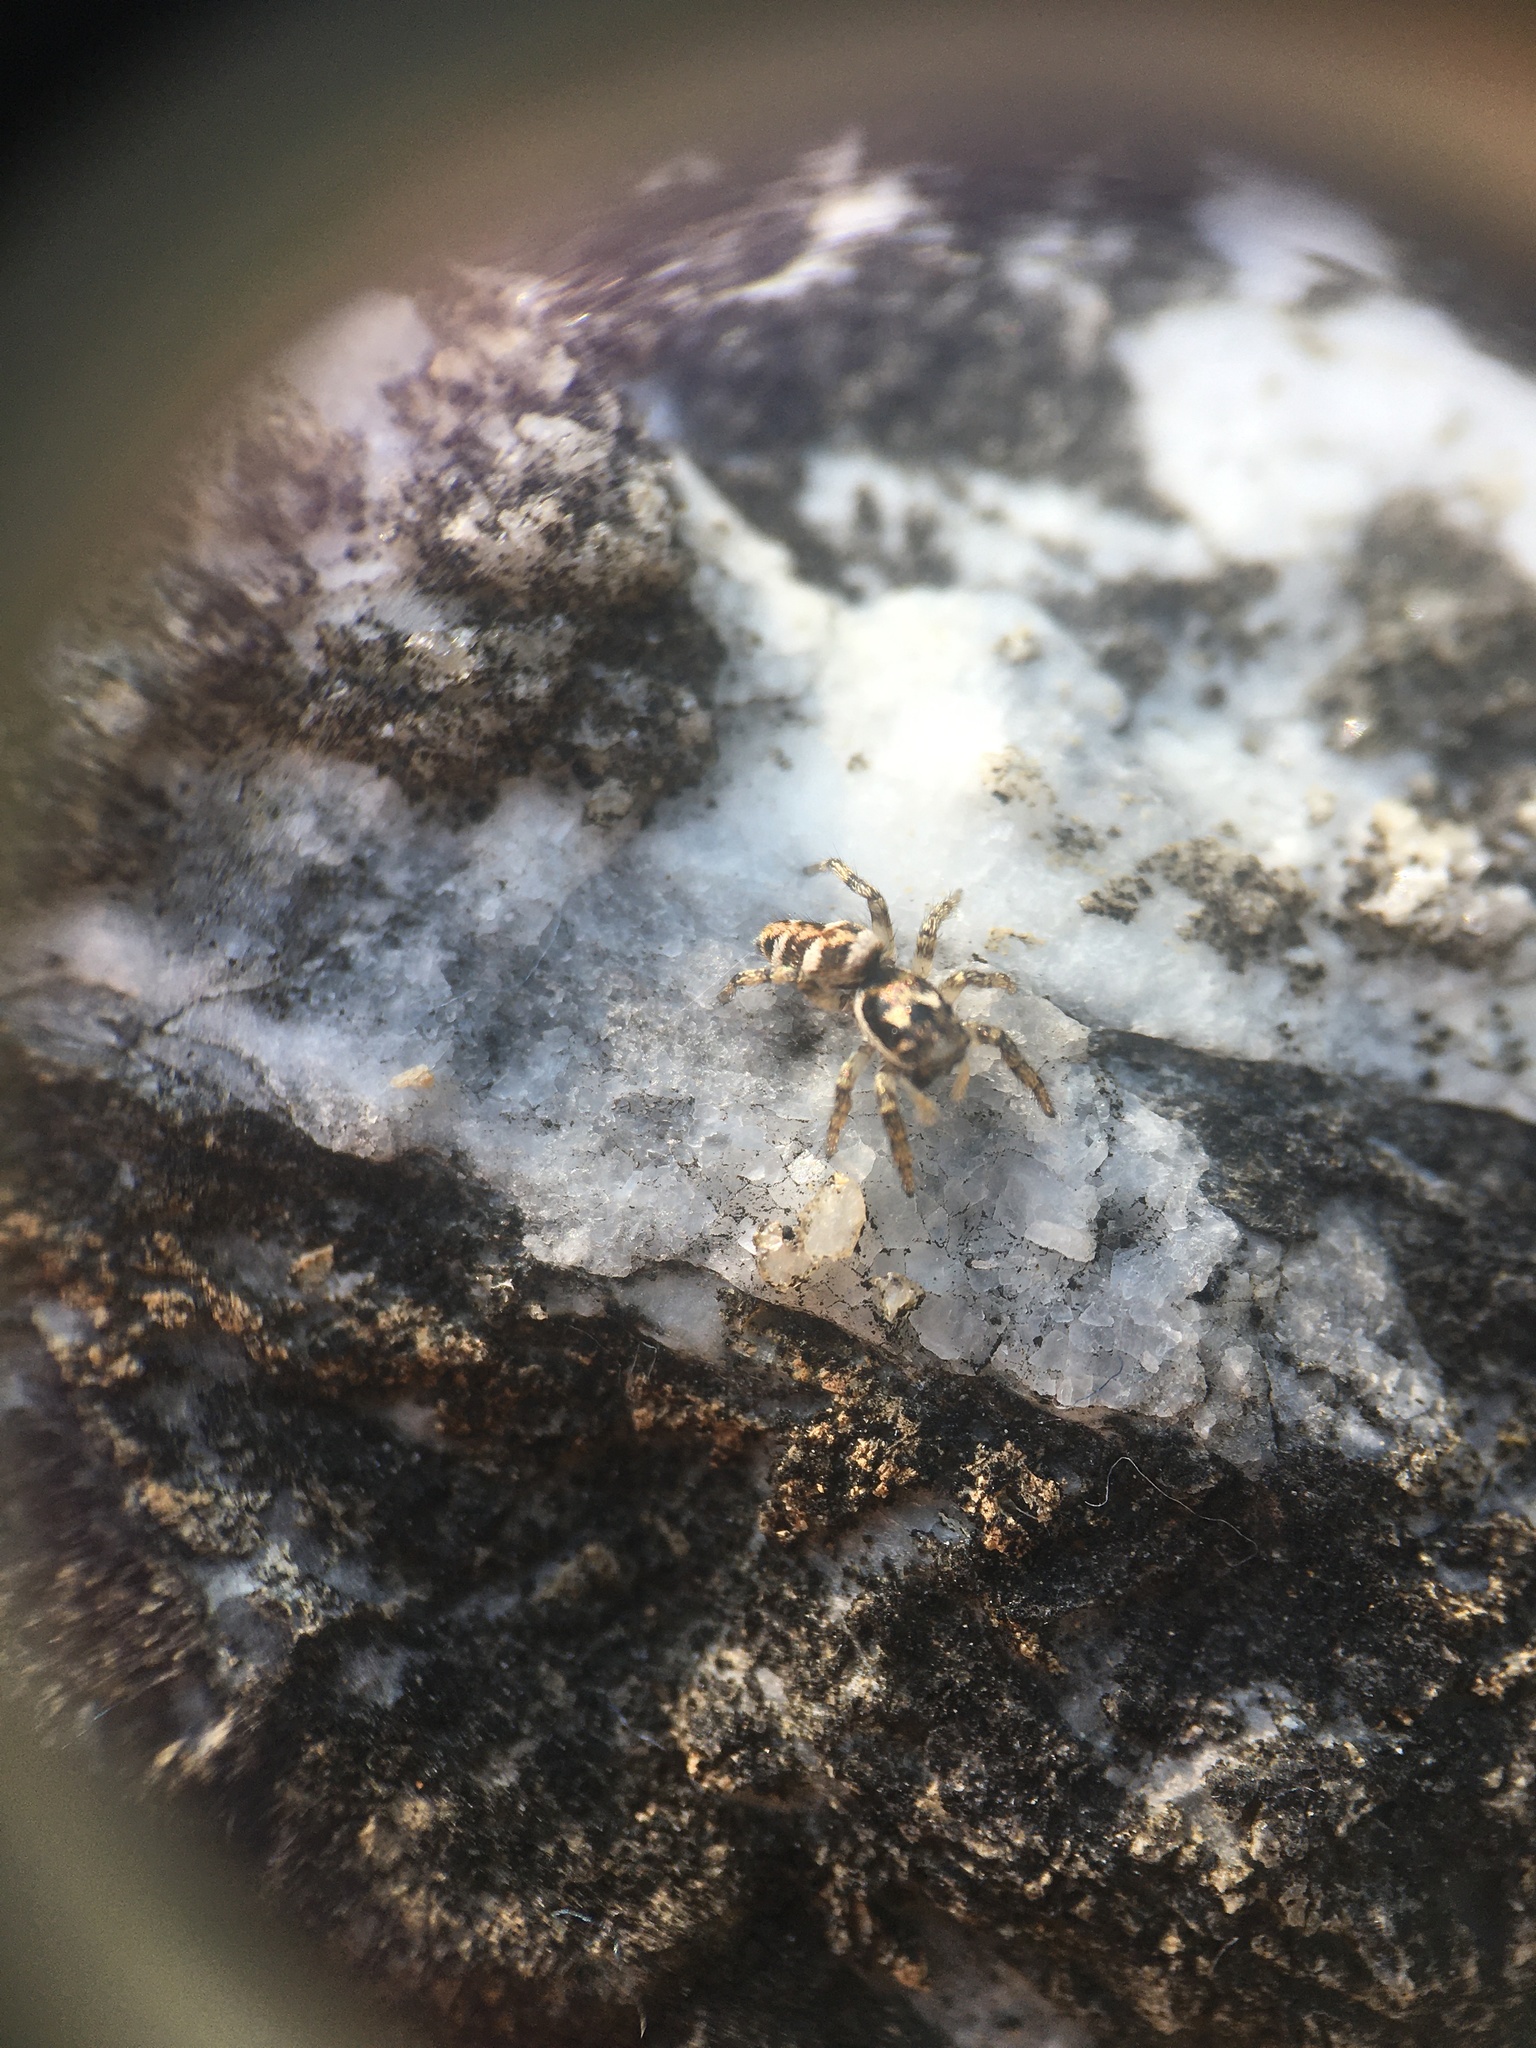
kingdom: Animalia
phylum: Arthropoda
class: Arachnida
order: Araneae
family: Salticidae
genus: Salticus
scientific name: Salticus scenicus
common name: Zebra jumper
